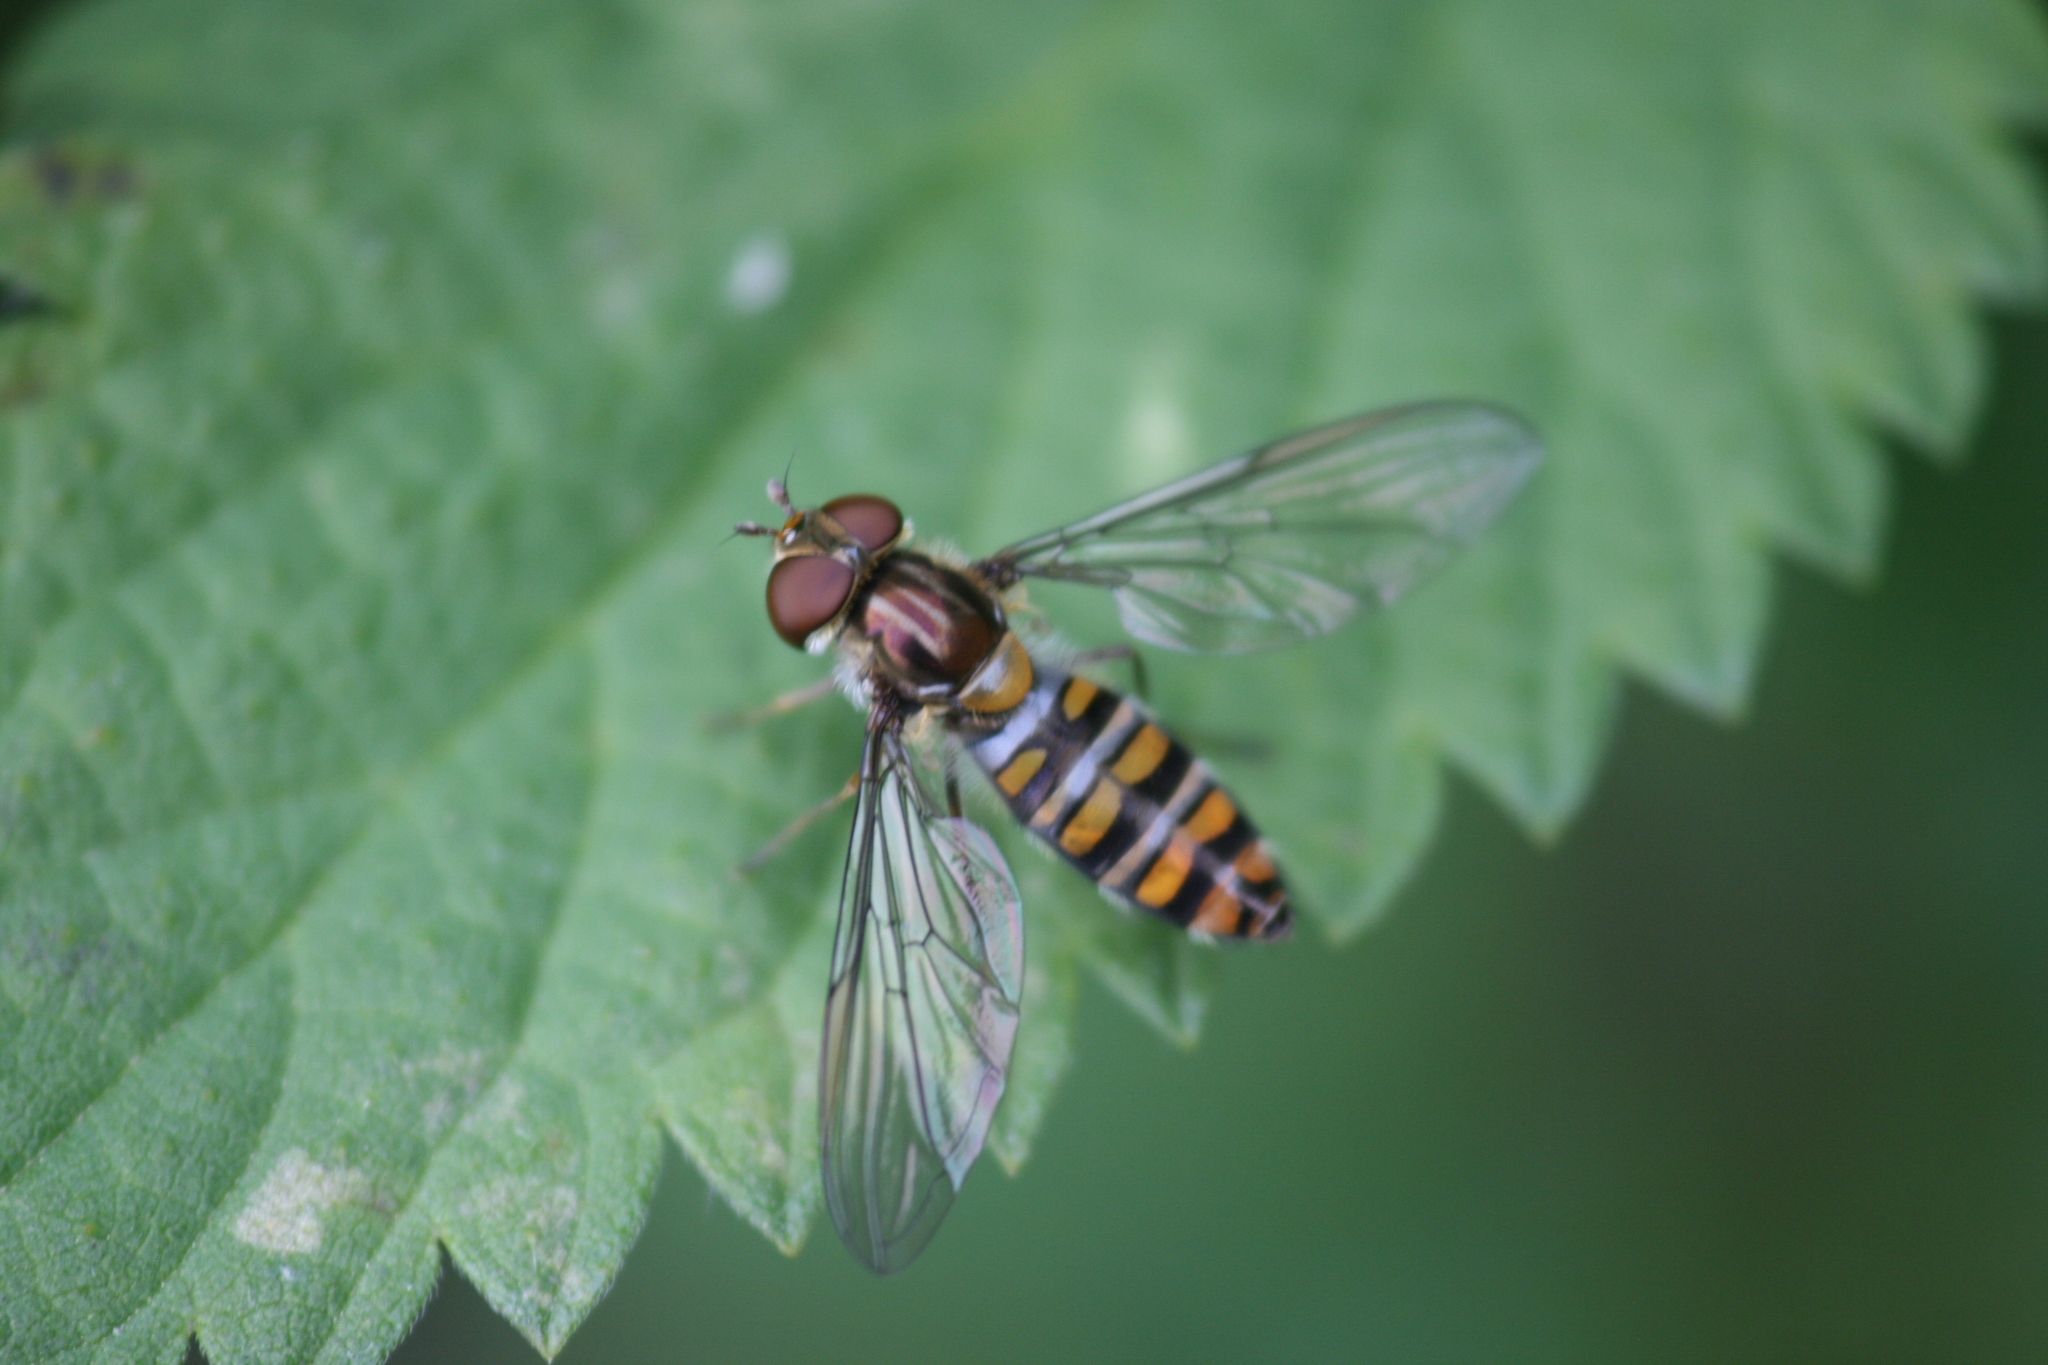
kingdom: Animalia
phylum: Arthropoda
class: Insecta
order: Diptera
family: Syrphidae
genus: Episyrphus
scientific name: Episyrphus balteatus
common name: Marmalade hoverfly
